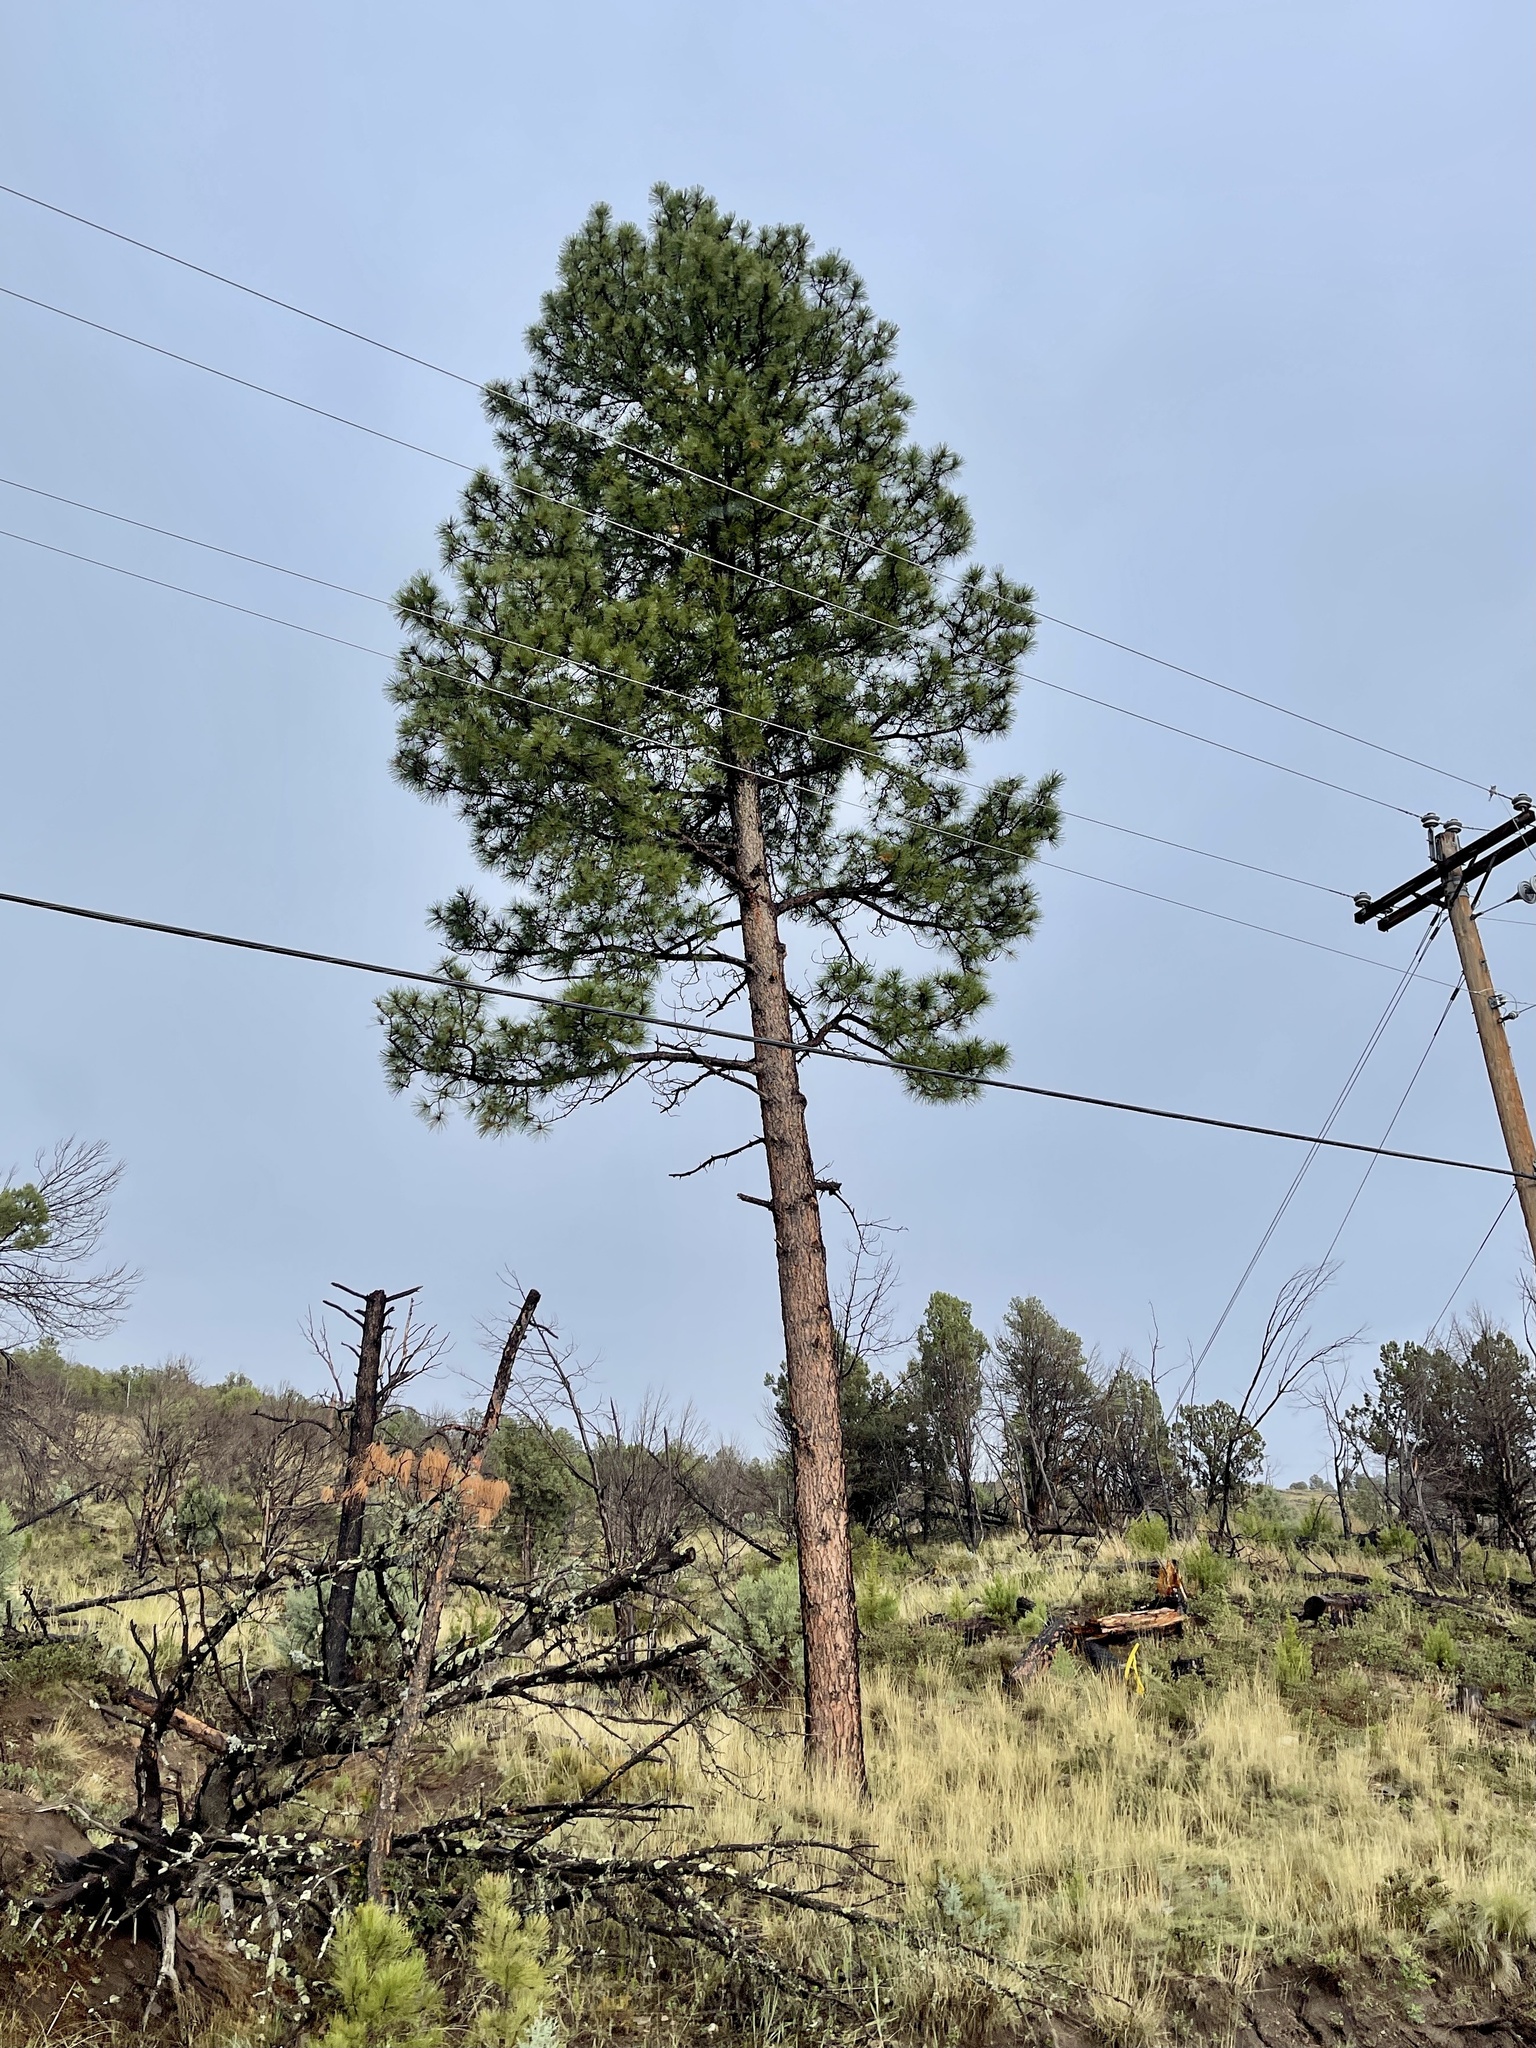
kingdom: Plantae
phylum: Tracheophyta
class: Pinopsida
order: Pinales
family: Pinaceae
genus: Pinus
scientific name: Pinus ponderosa
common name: Western yellow-pine
